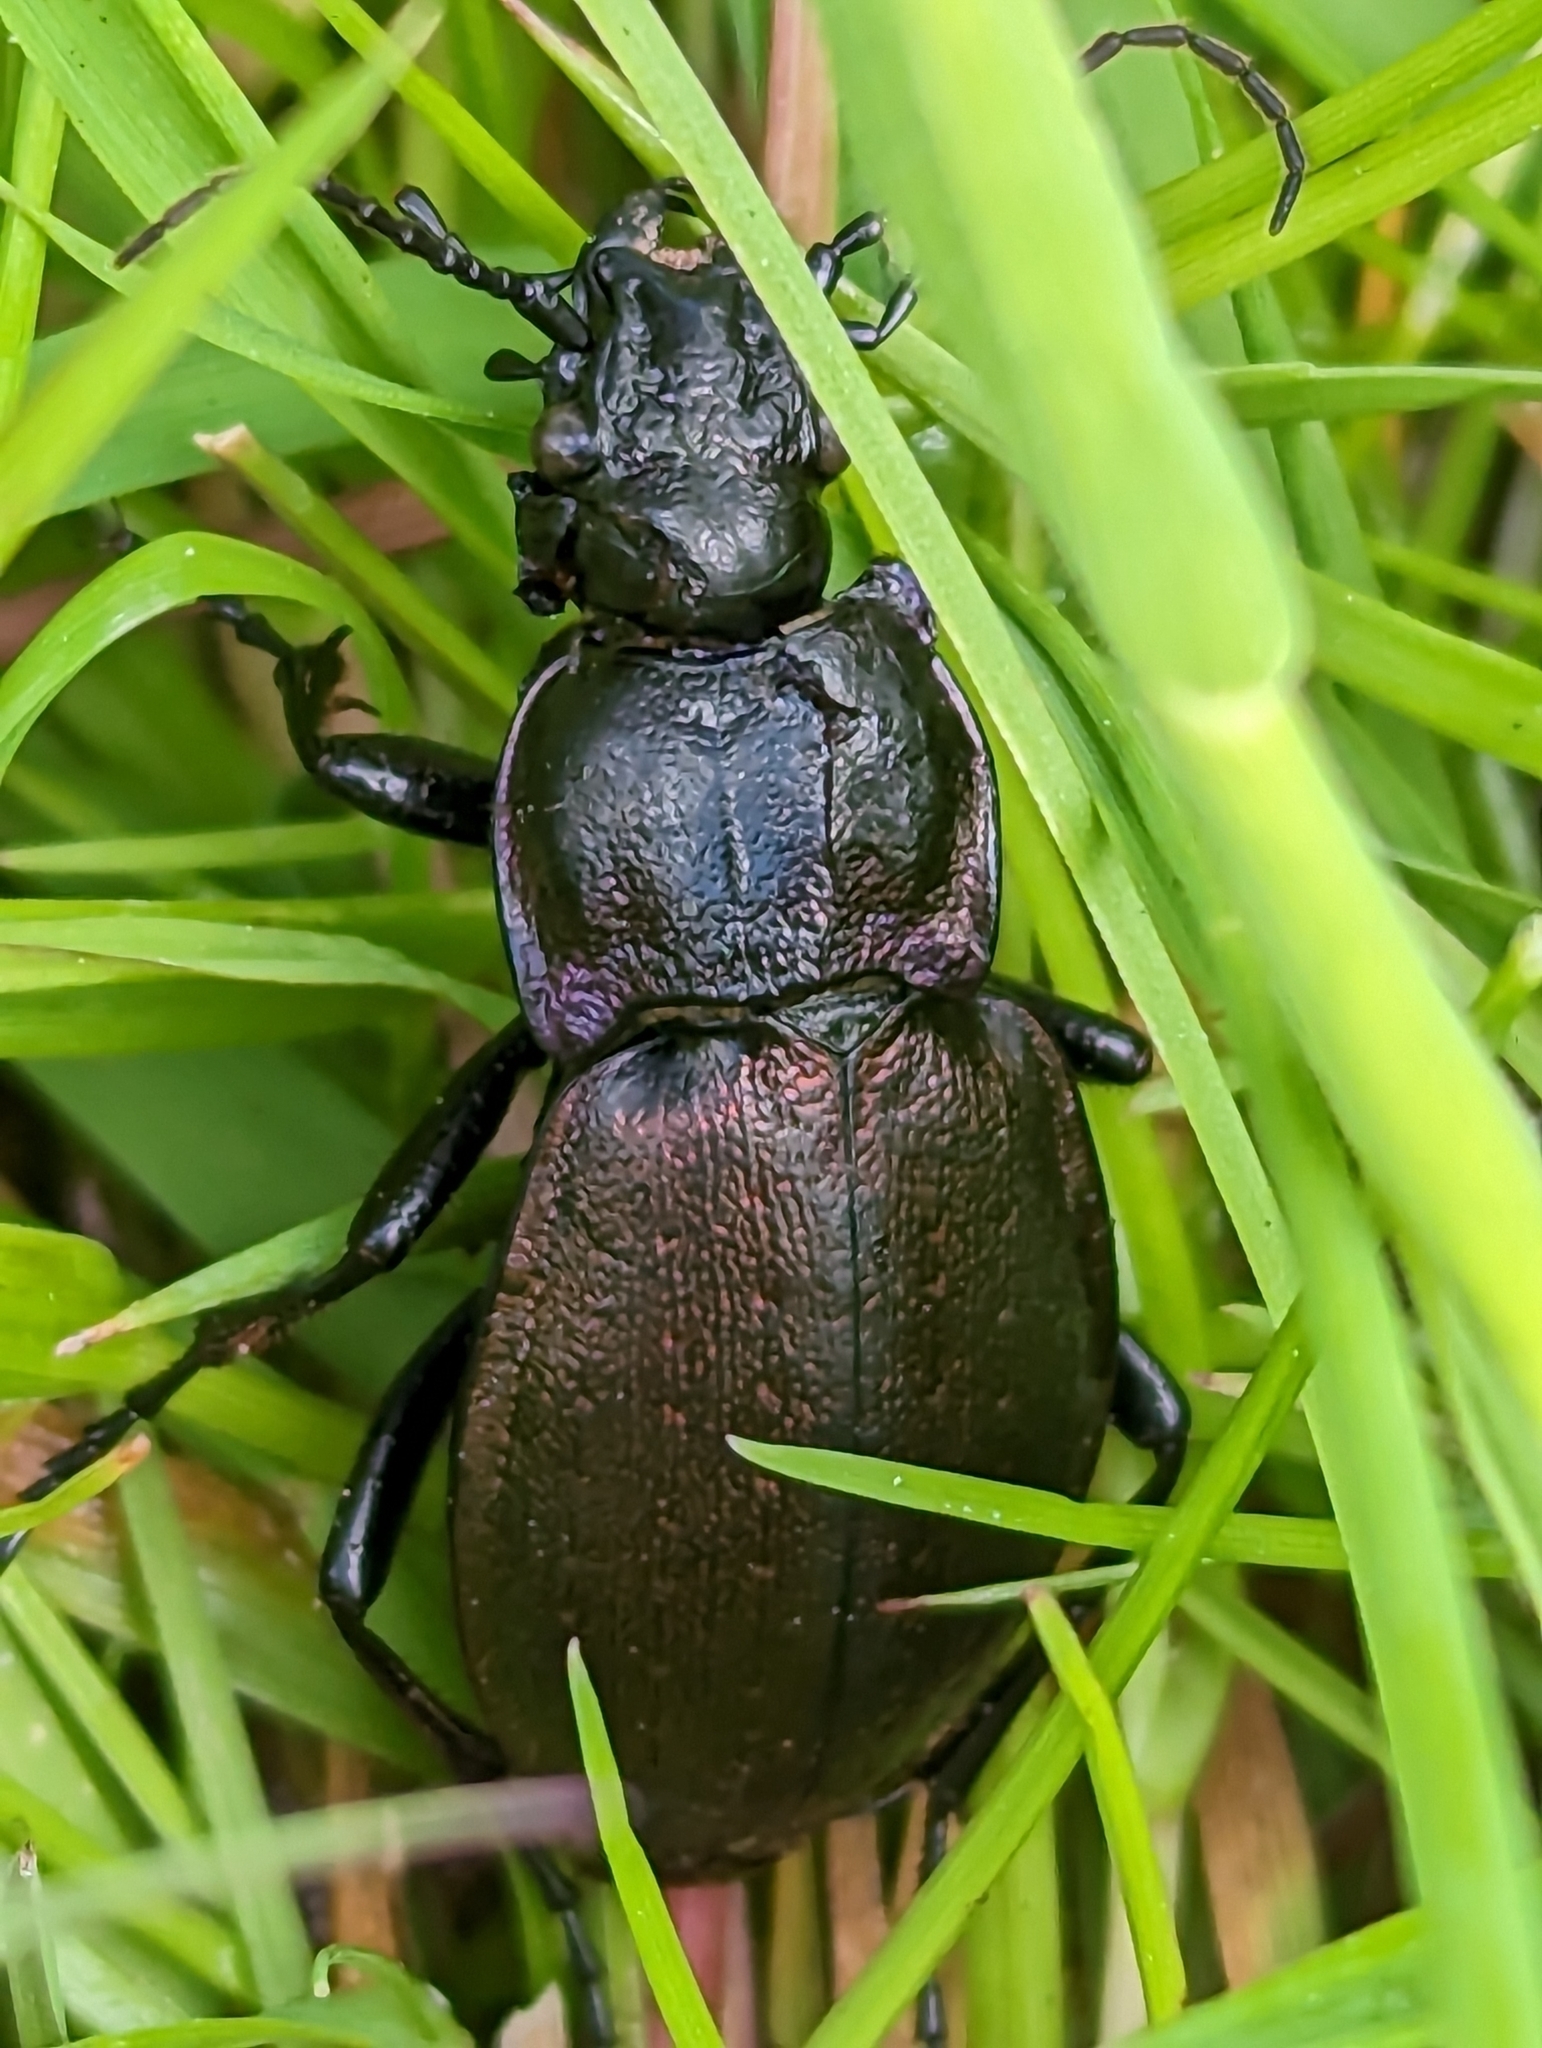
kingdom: Animalia
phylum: Arthropoda
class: Insecta
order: Coleoptera
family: Carabidae
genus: Carabus
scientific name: Carabus nemoralis
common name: European ground beetle
